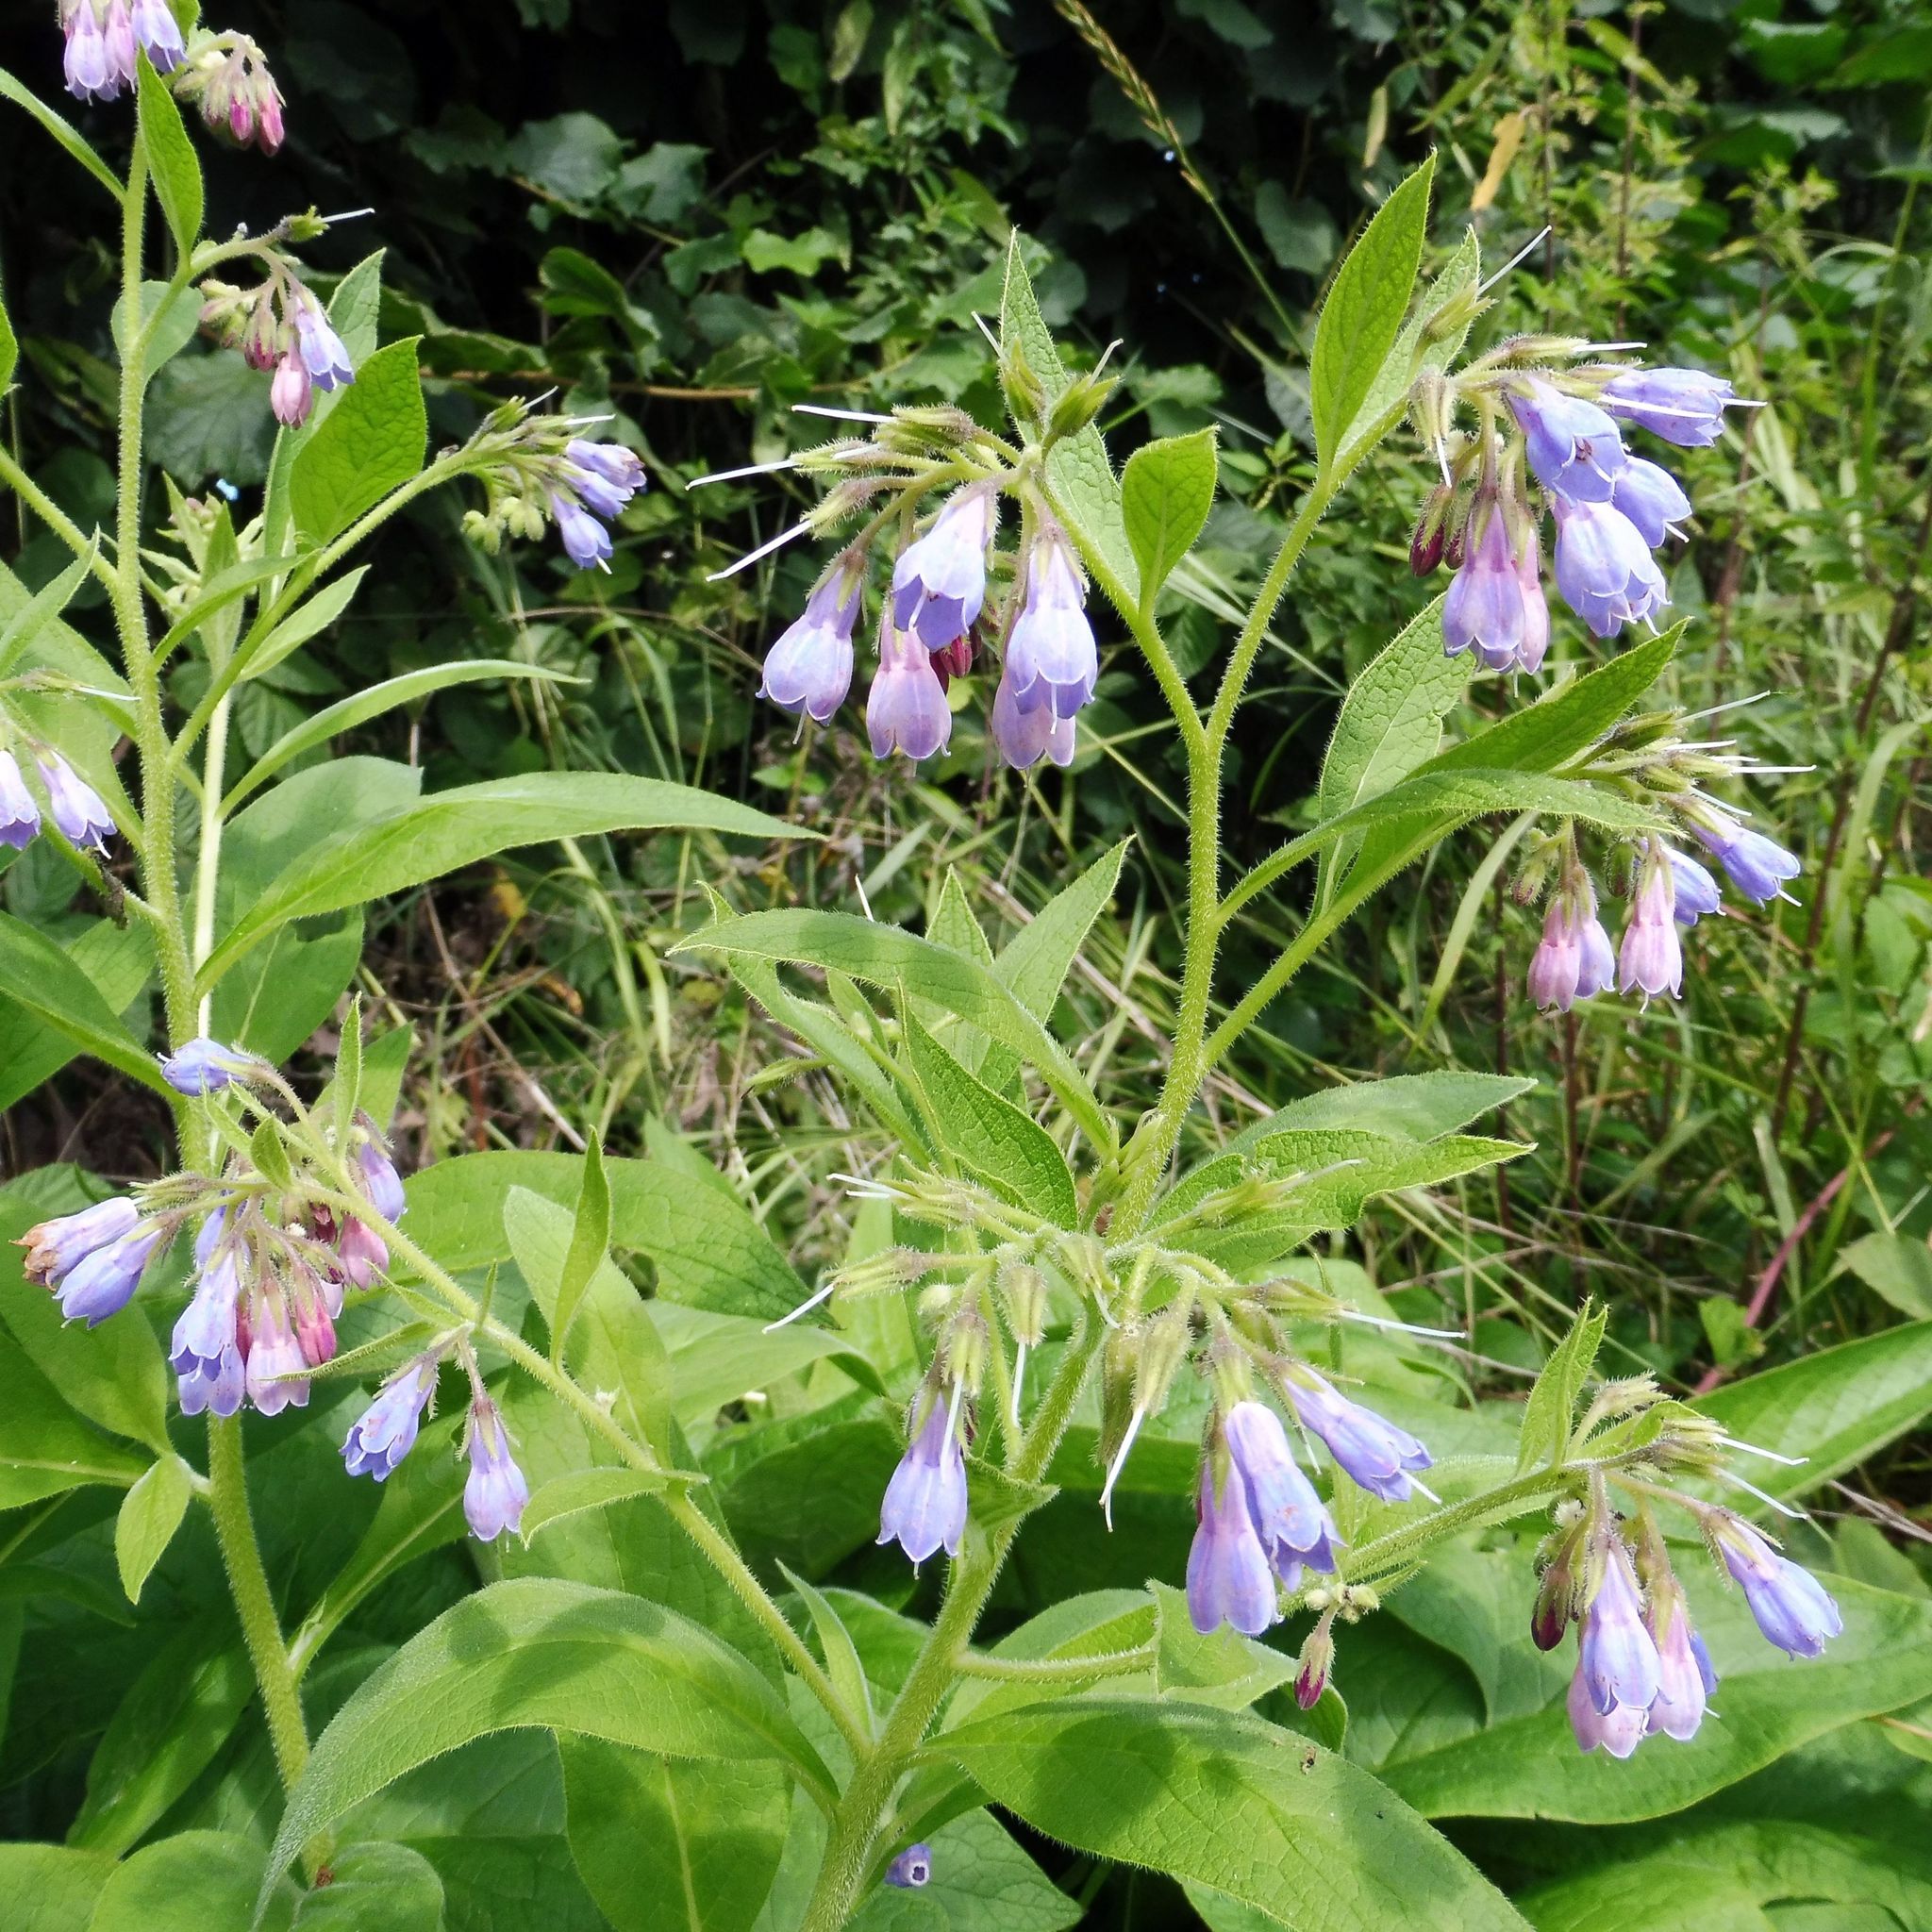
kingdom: Plantae
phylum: Tracheophyta
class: Magnoliopsida
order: Boraginales
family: Boraginaceae
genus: Symphytum
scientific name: Symphytum uplandicum
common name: Russian comfrey
